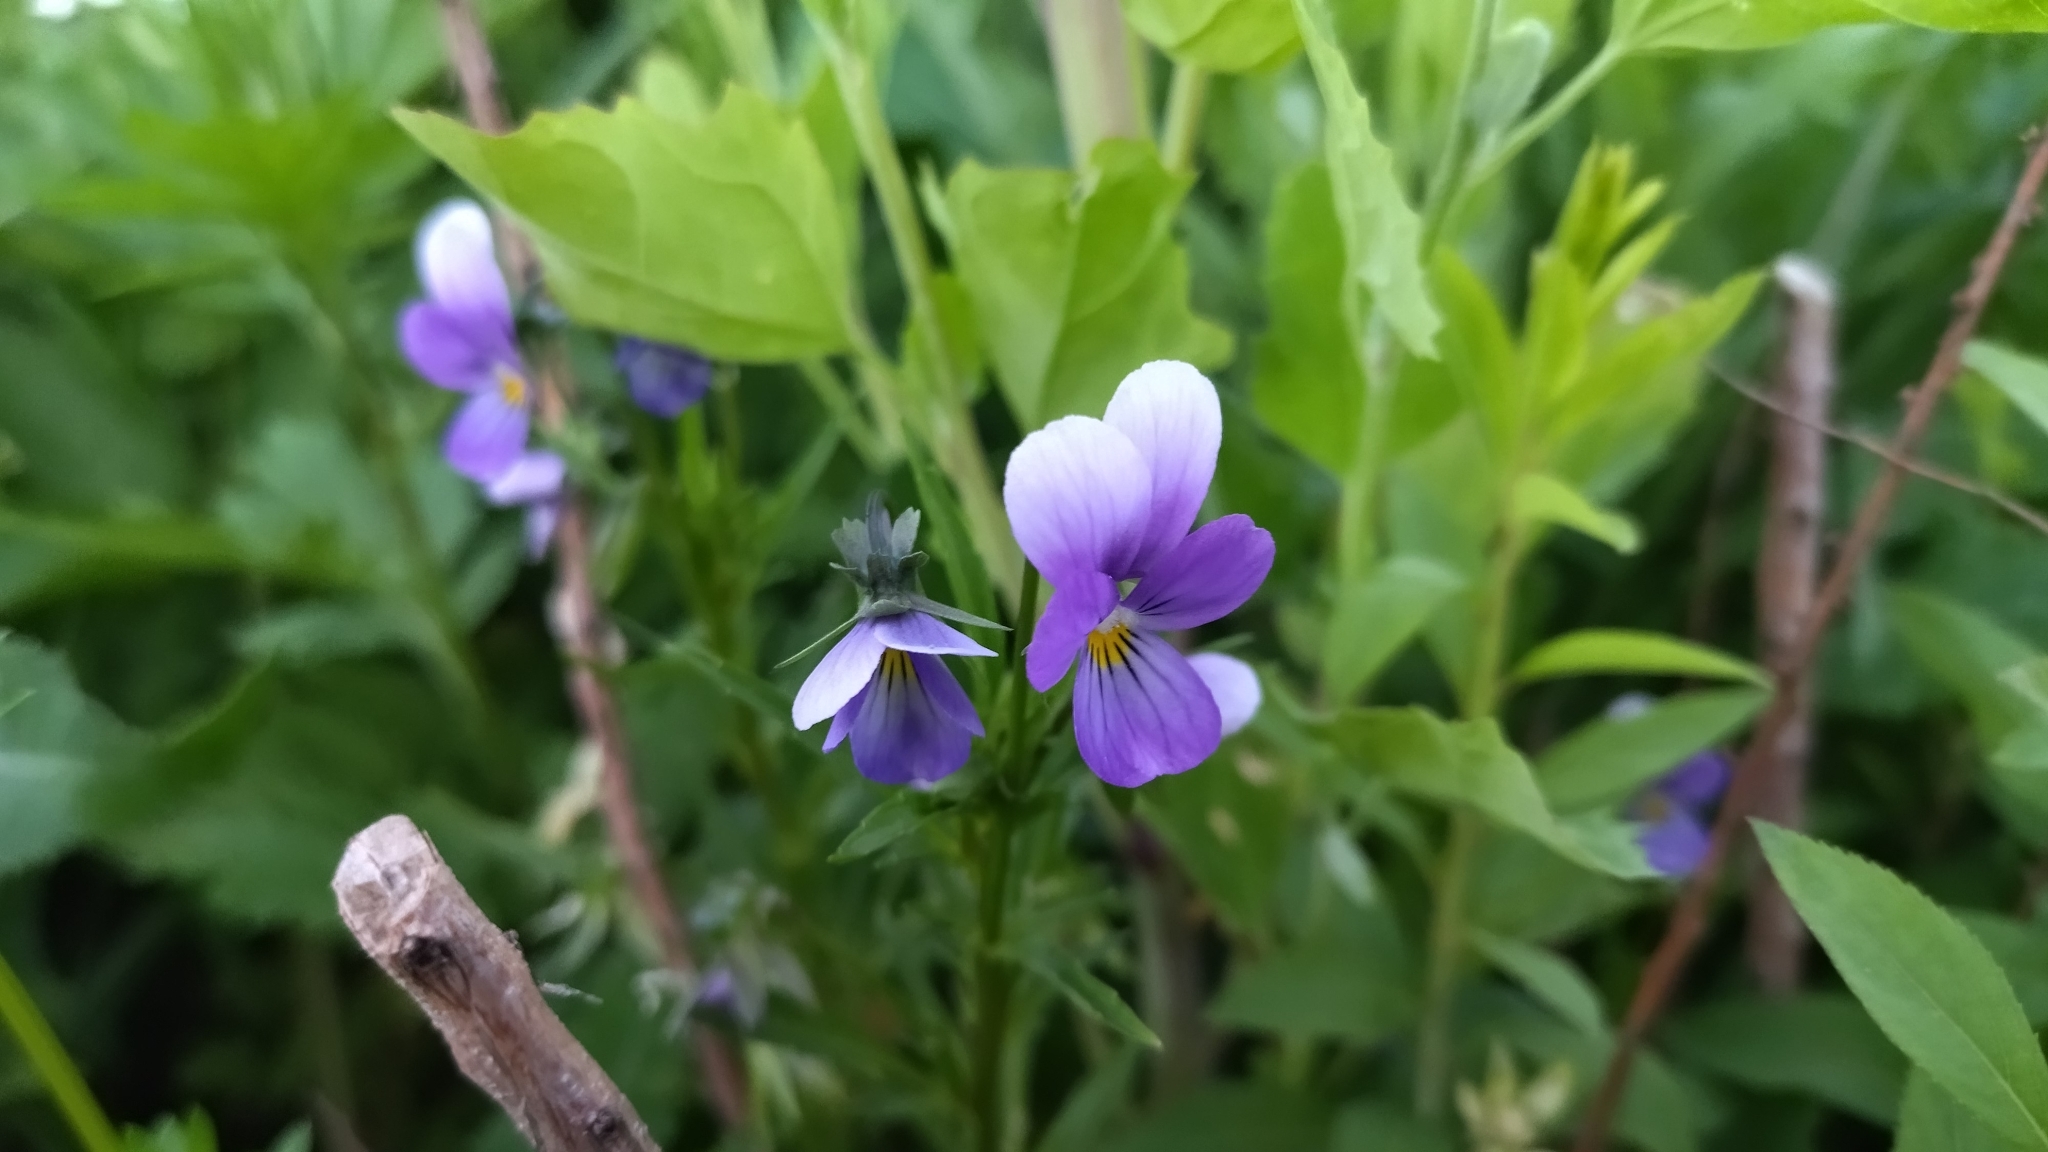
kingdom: Plantae
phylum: Tracheophyta
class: Magnoliopsida
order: Malpighiales
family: Violaceae
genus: Viola
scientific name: Viola tricolor
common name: Pansy
